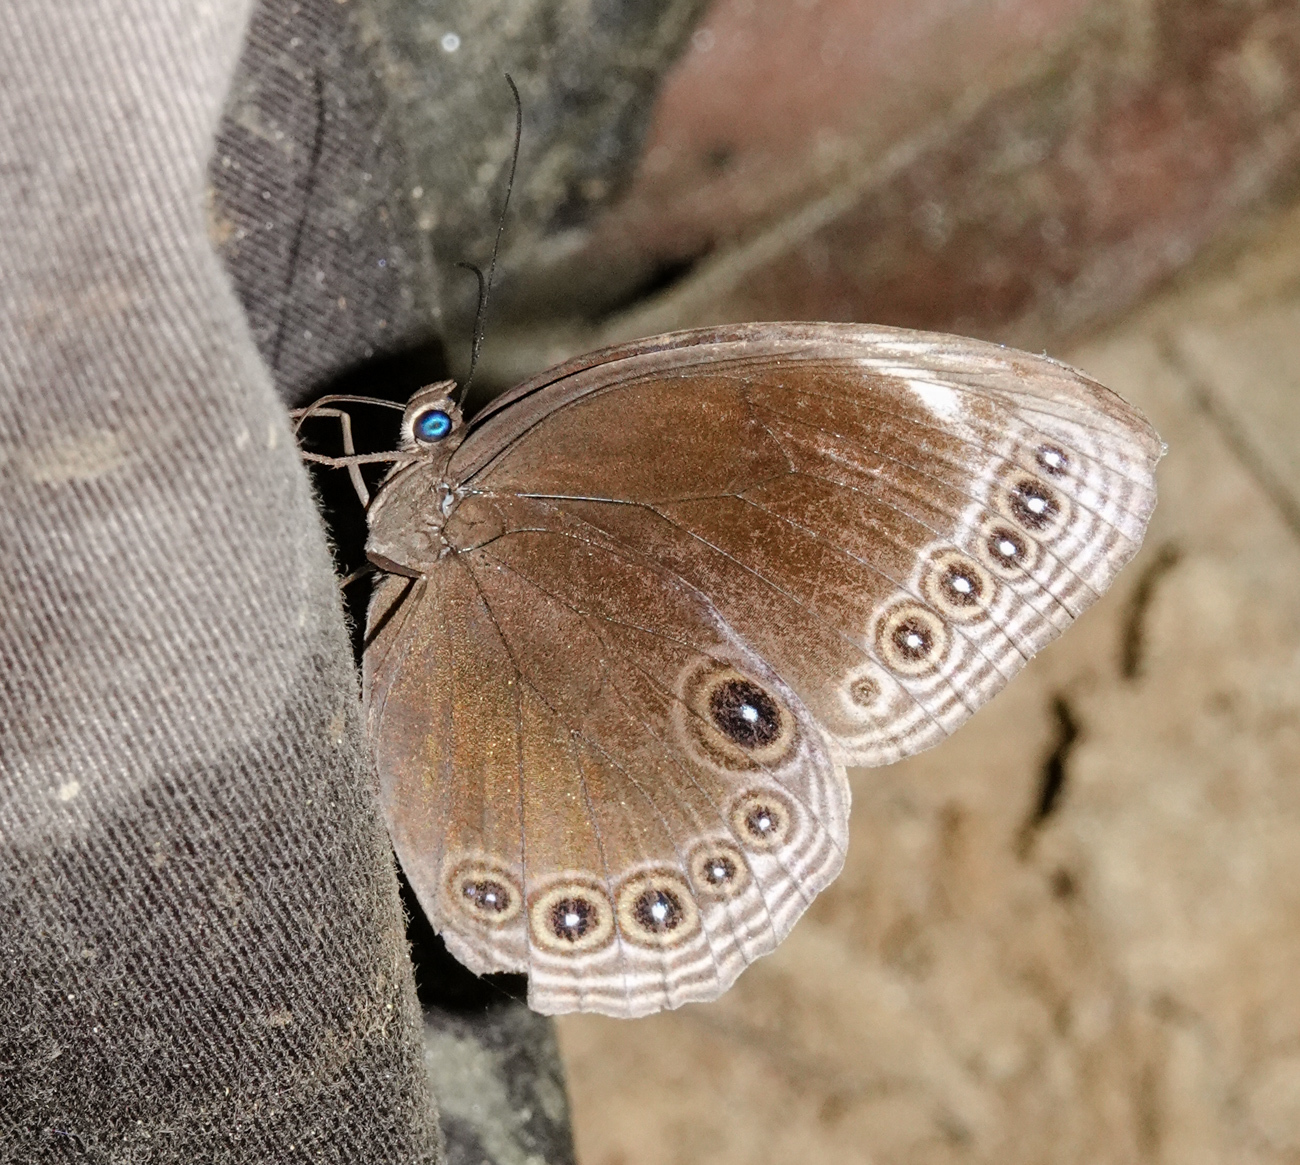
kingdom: Animalia
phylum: Arthropoda
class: Insecta
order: Lepidoptera
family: Nymphalidae
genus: Ethope
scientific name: Ethope himachala
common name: Dusky diadem
